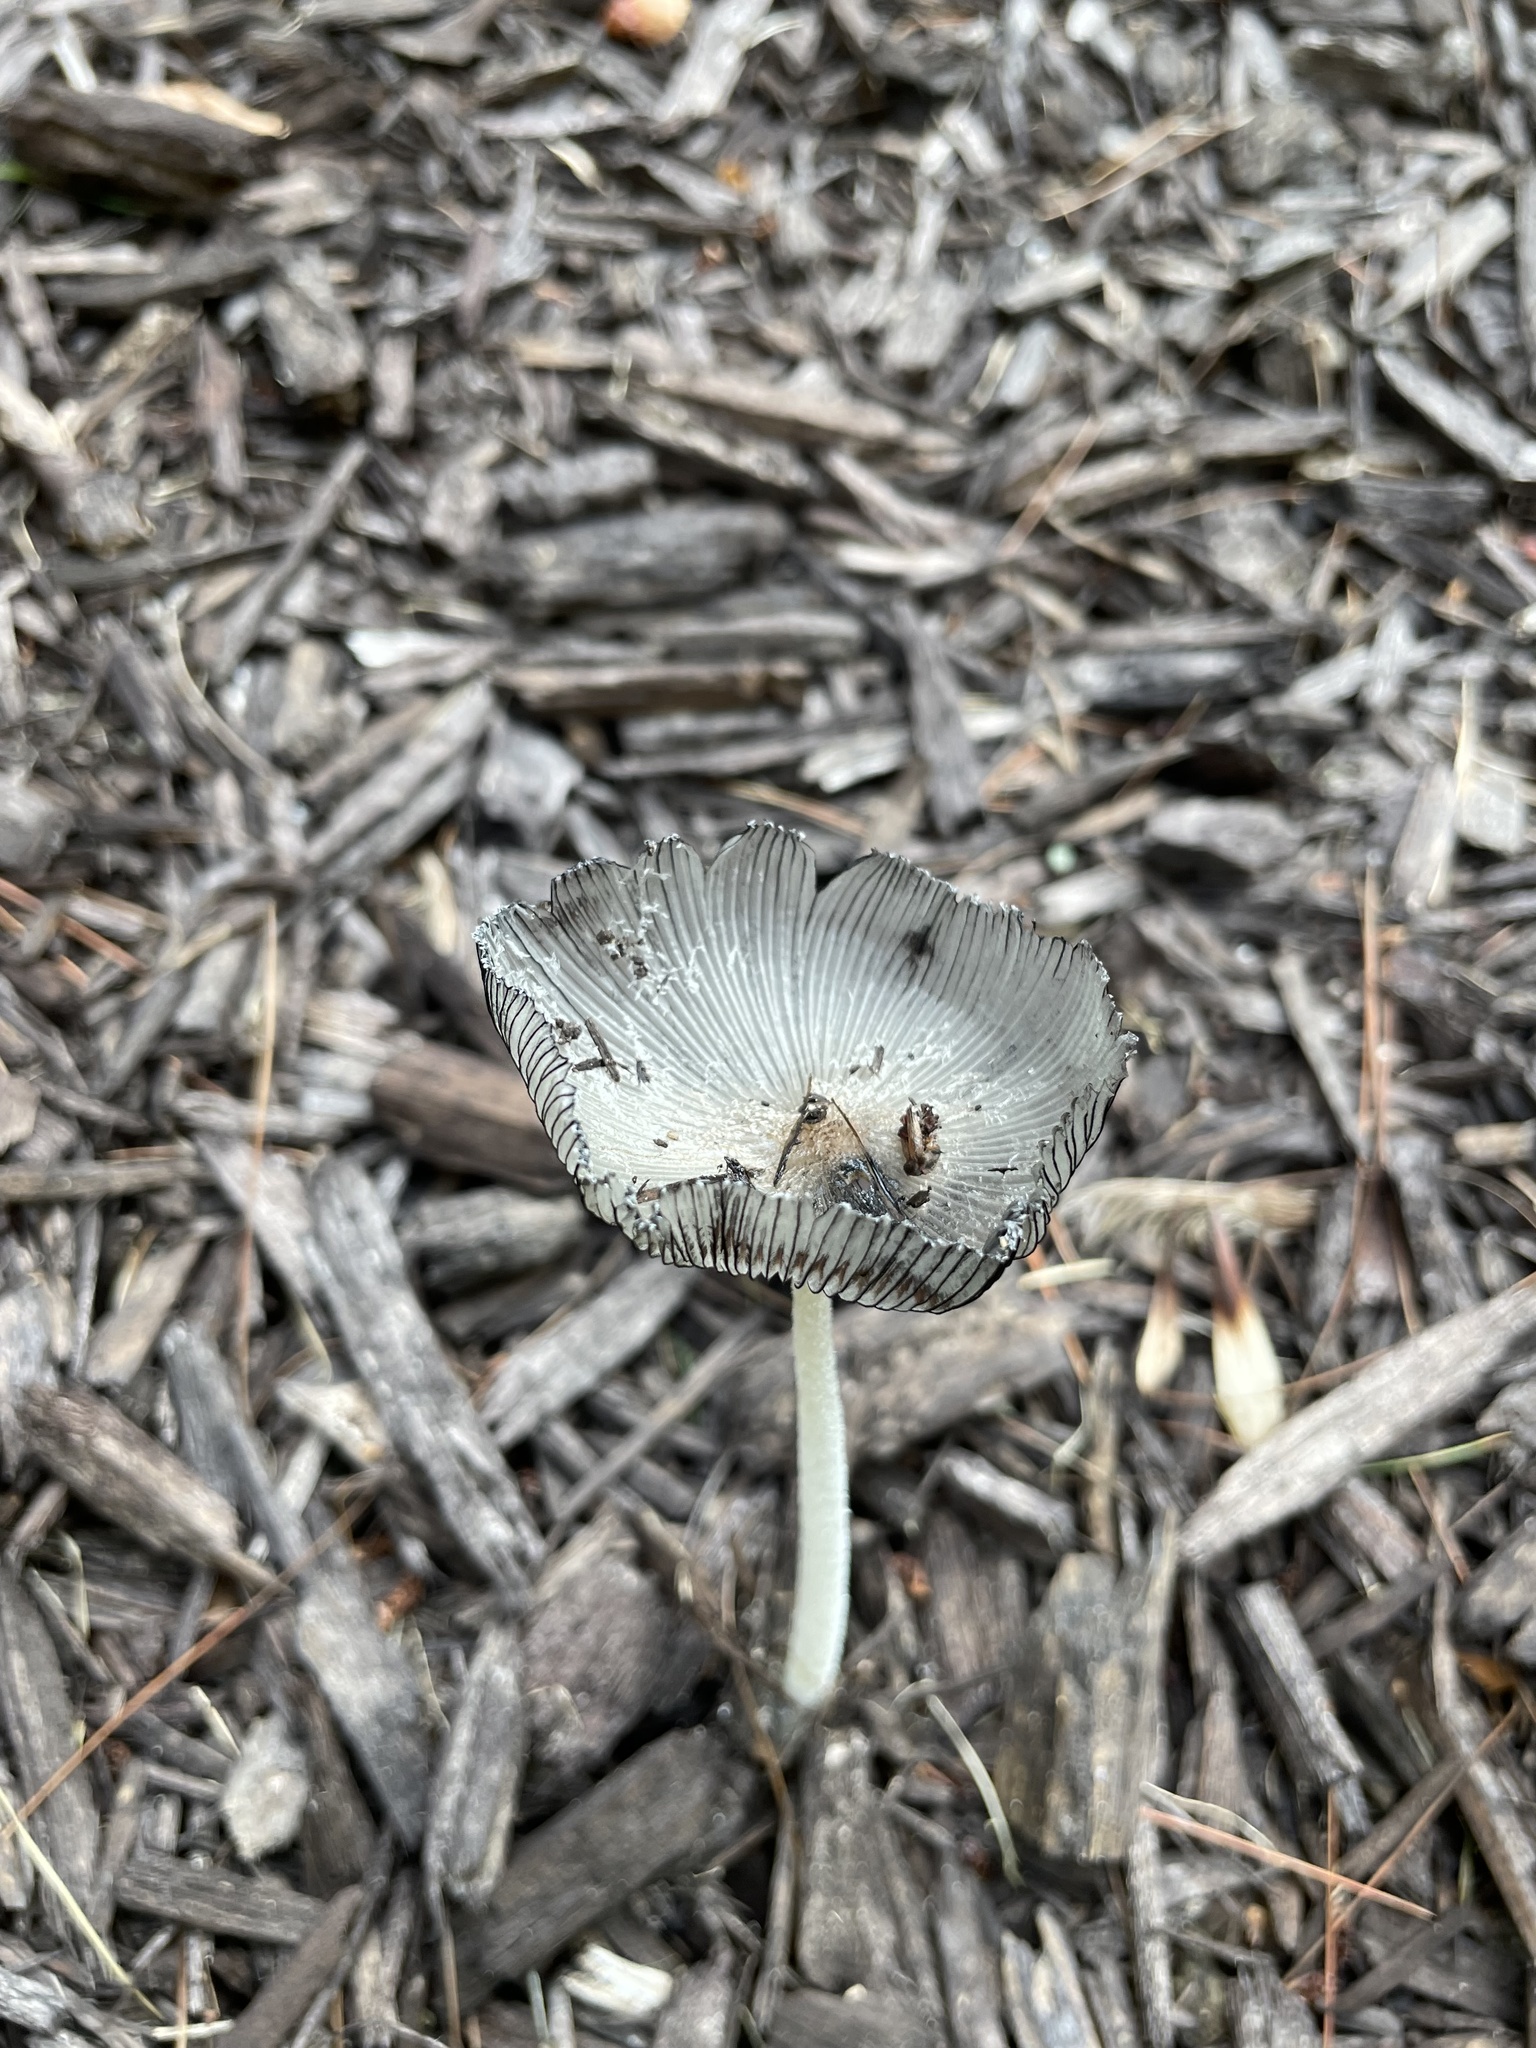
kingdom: Fungi
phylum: Basidiomycota
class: Agaricomycetes
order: Agaricales
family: Psathyrellaceae
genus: Coprinopsis
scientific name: Coprinopsis lagopus
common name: Hare'sfoot inkcap
